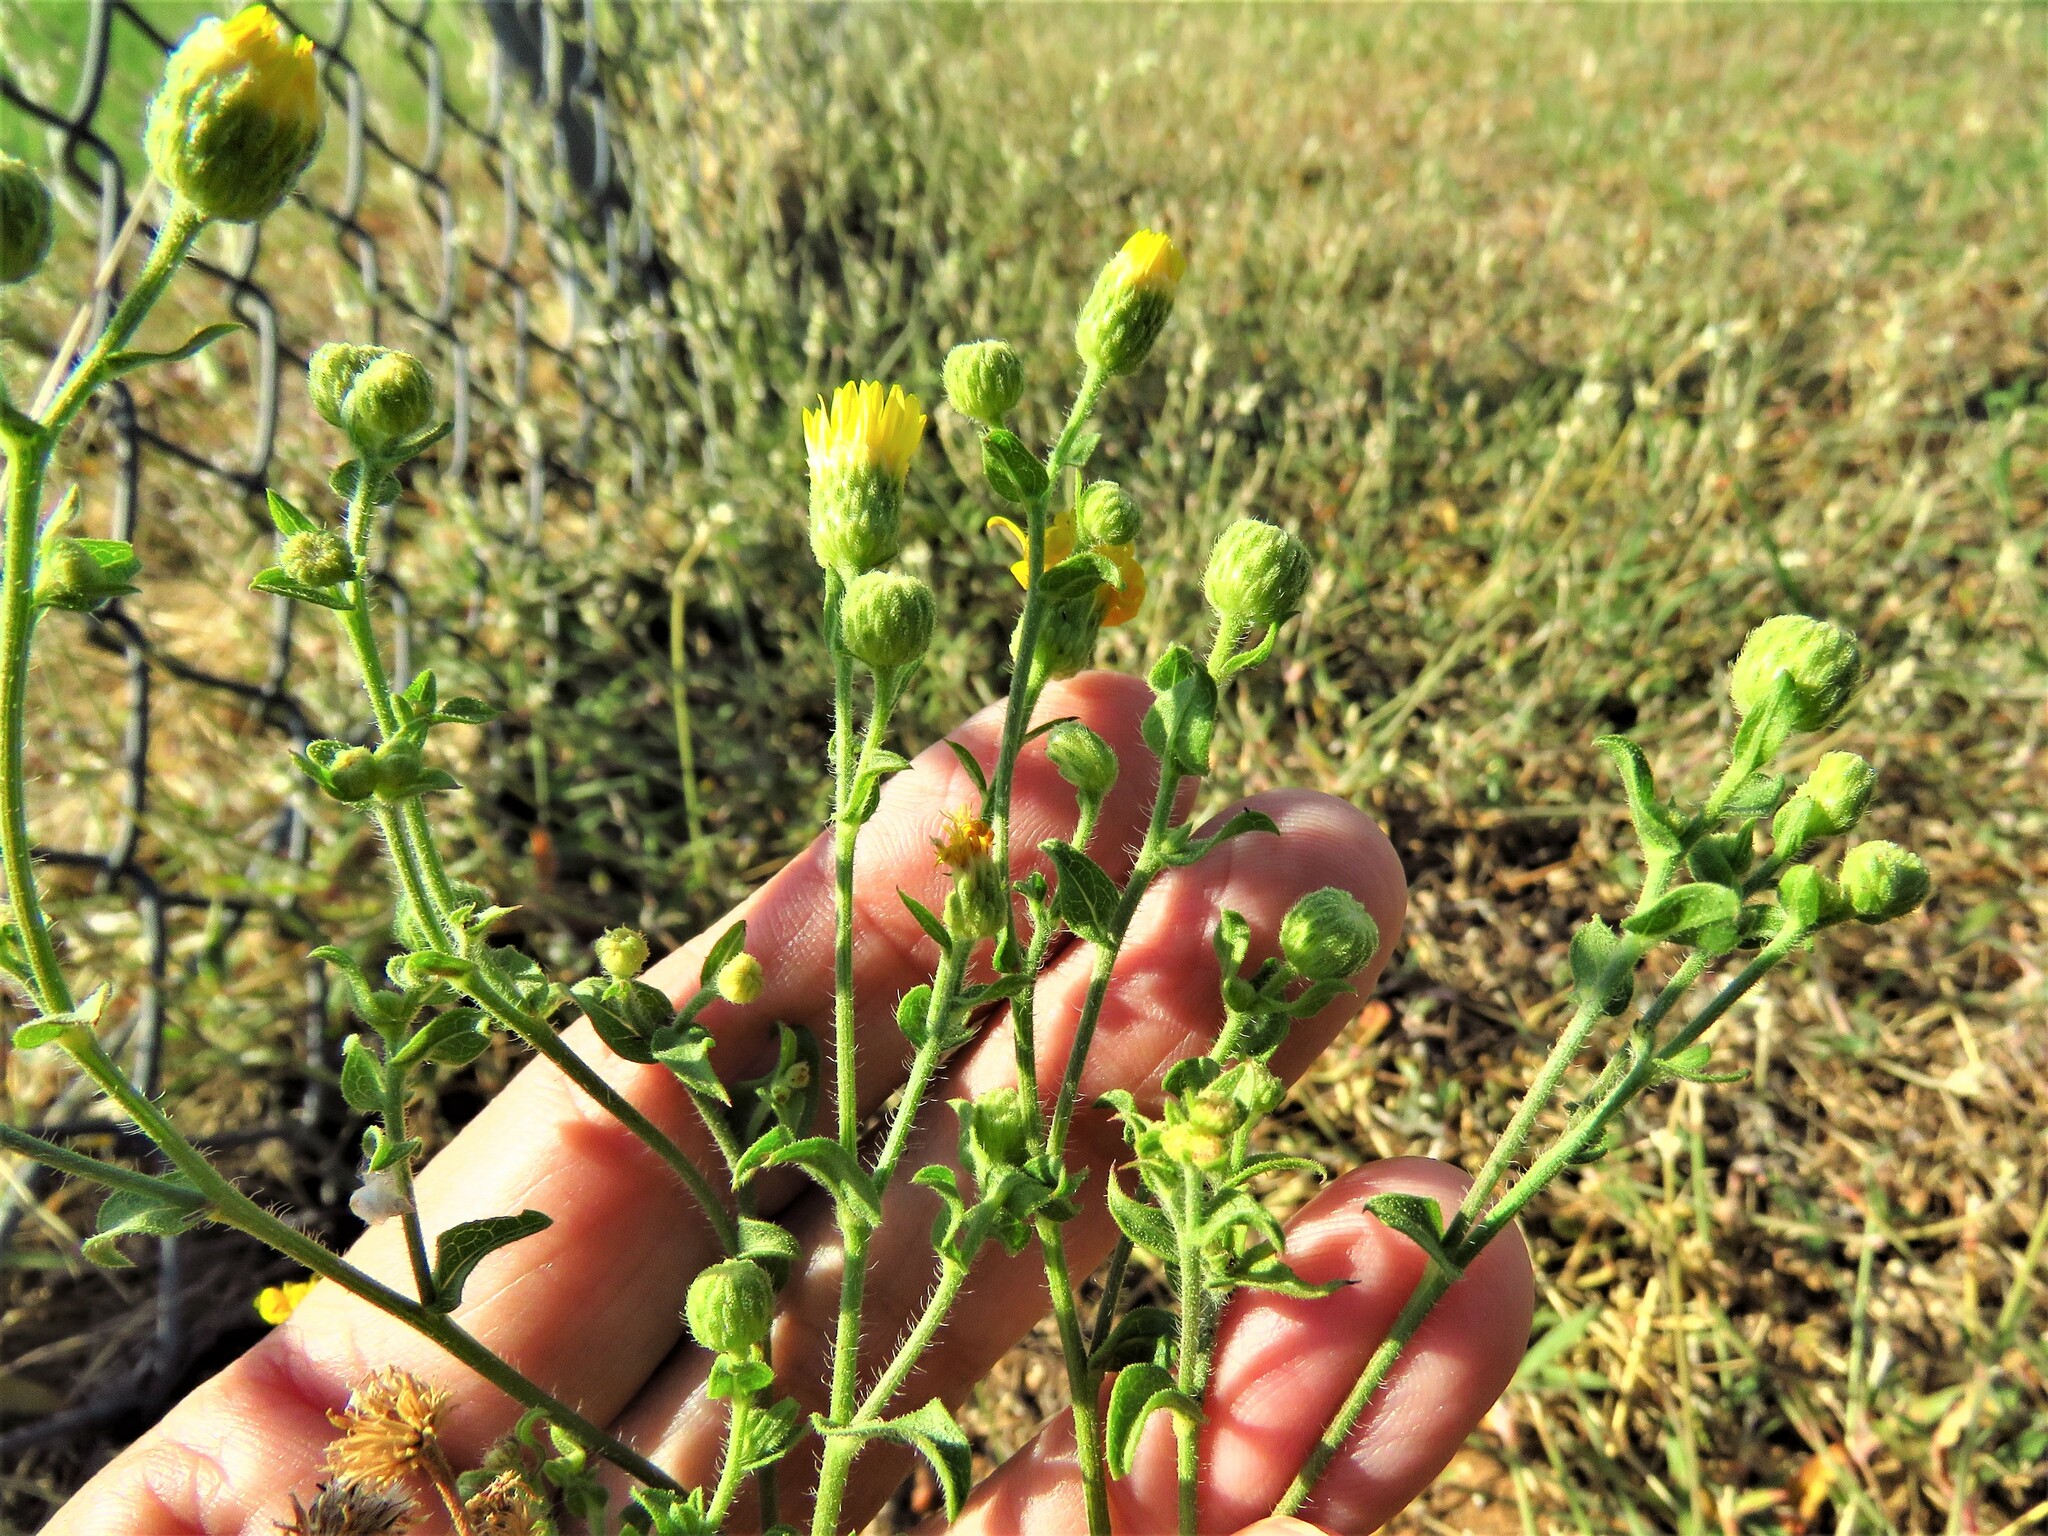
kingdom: Plantae
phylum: Tracheophyta
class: Magnoliopsida
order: Asterales
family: Asteraceae
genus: Heterotheca
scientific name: Heterotheca subaxillaris
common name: Camphorweed
